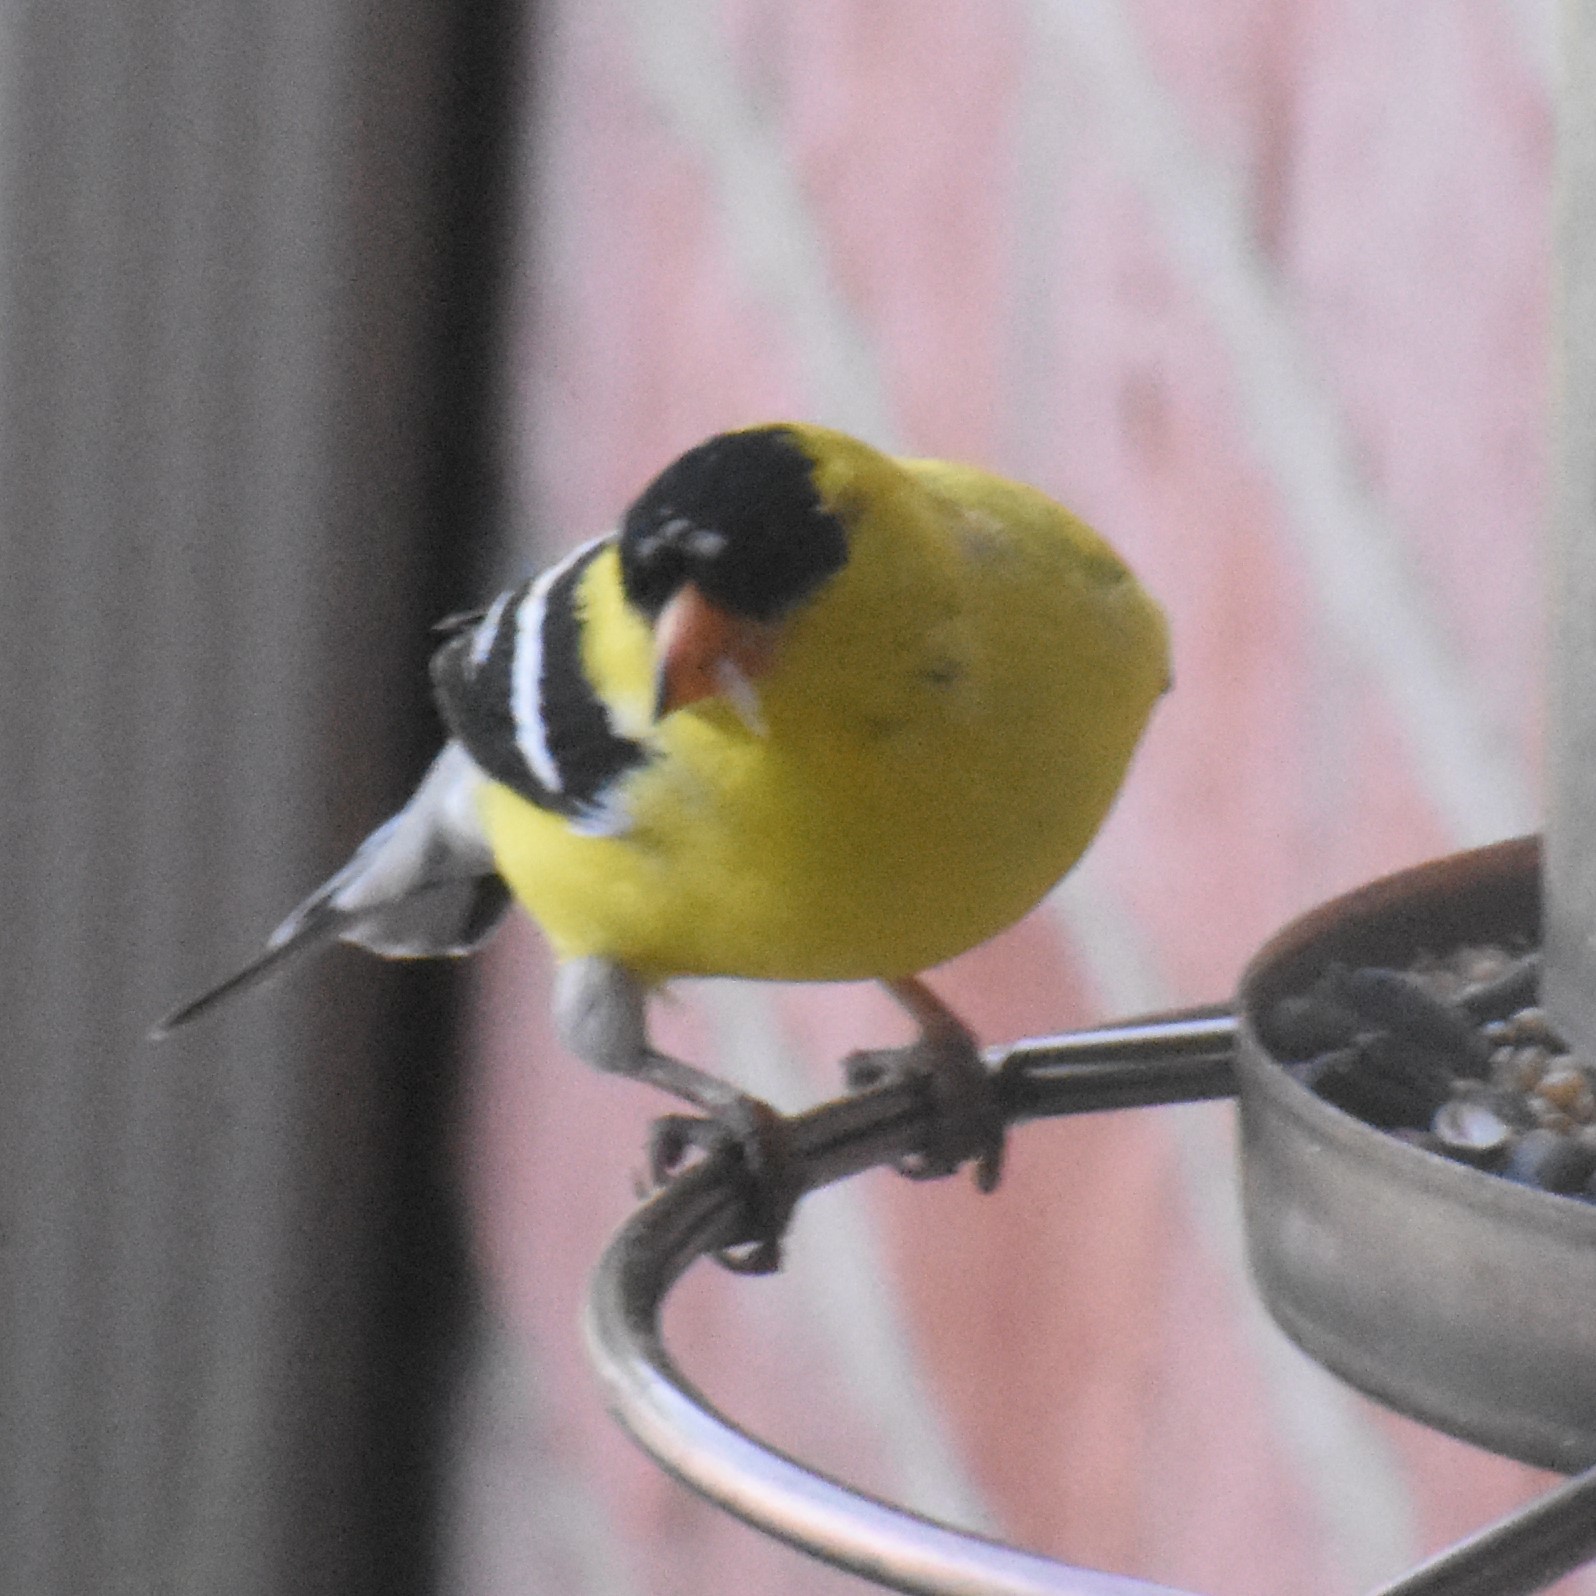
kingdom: Animalia
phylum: Chordata
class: Aves
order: Passeriformes
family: Fringillidae
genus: Spinus
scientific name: Spinus tristis
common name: American goldfinch
